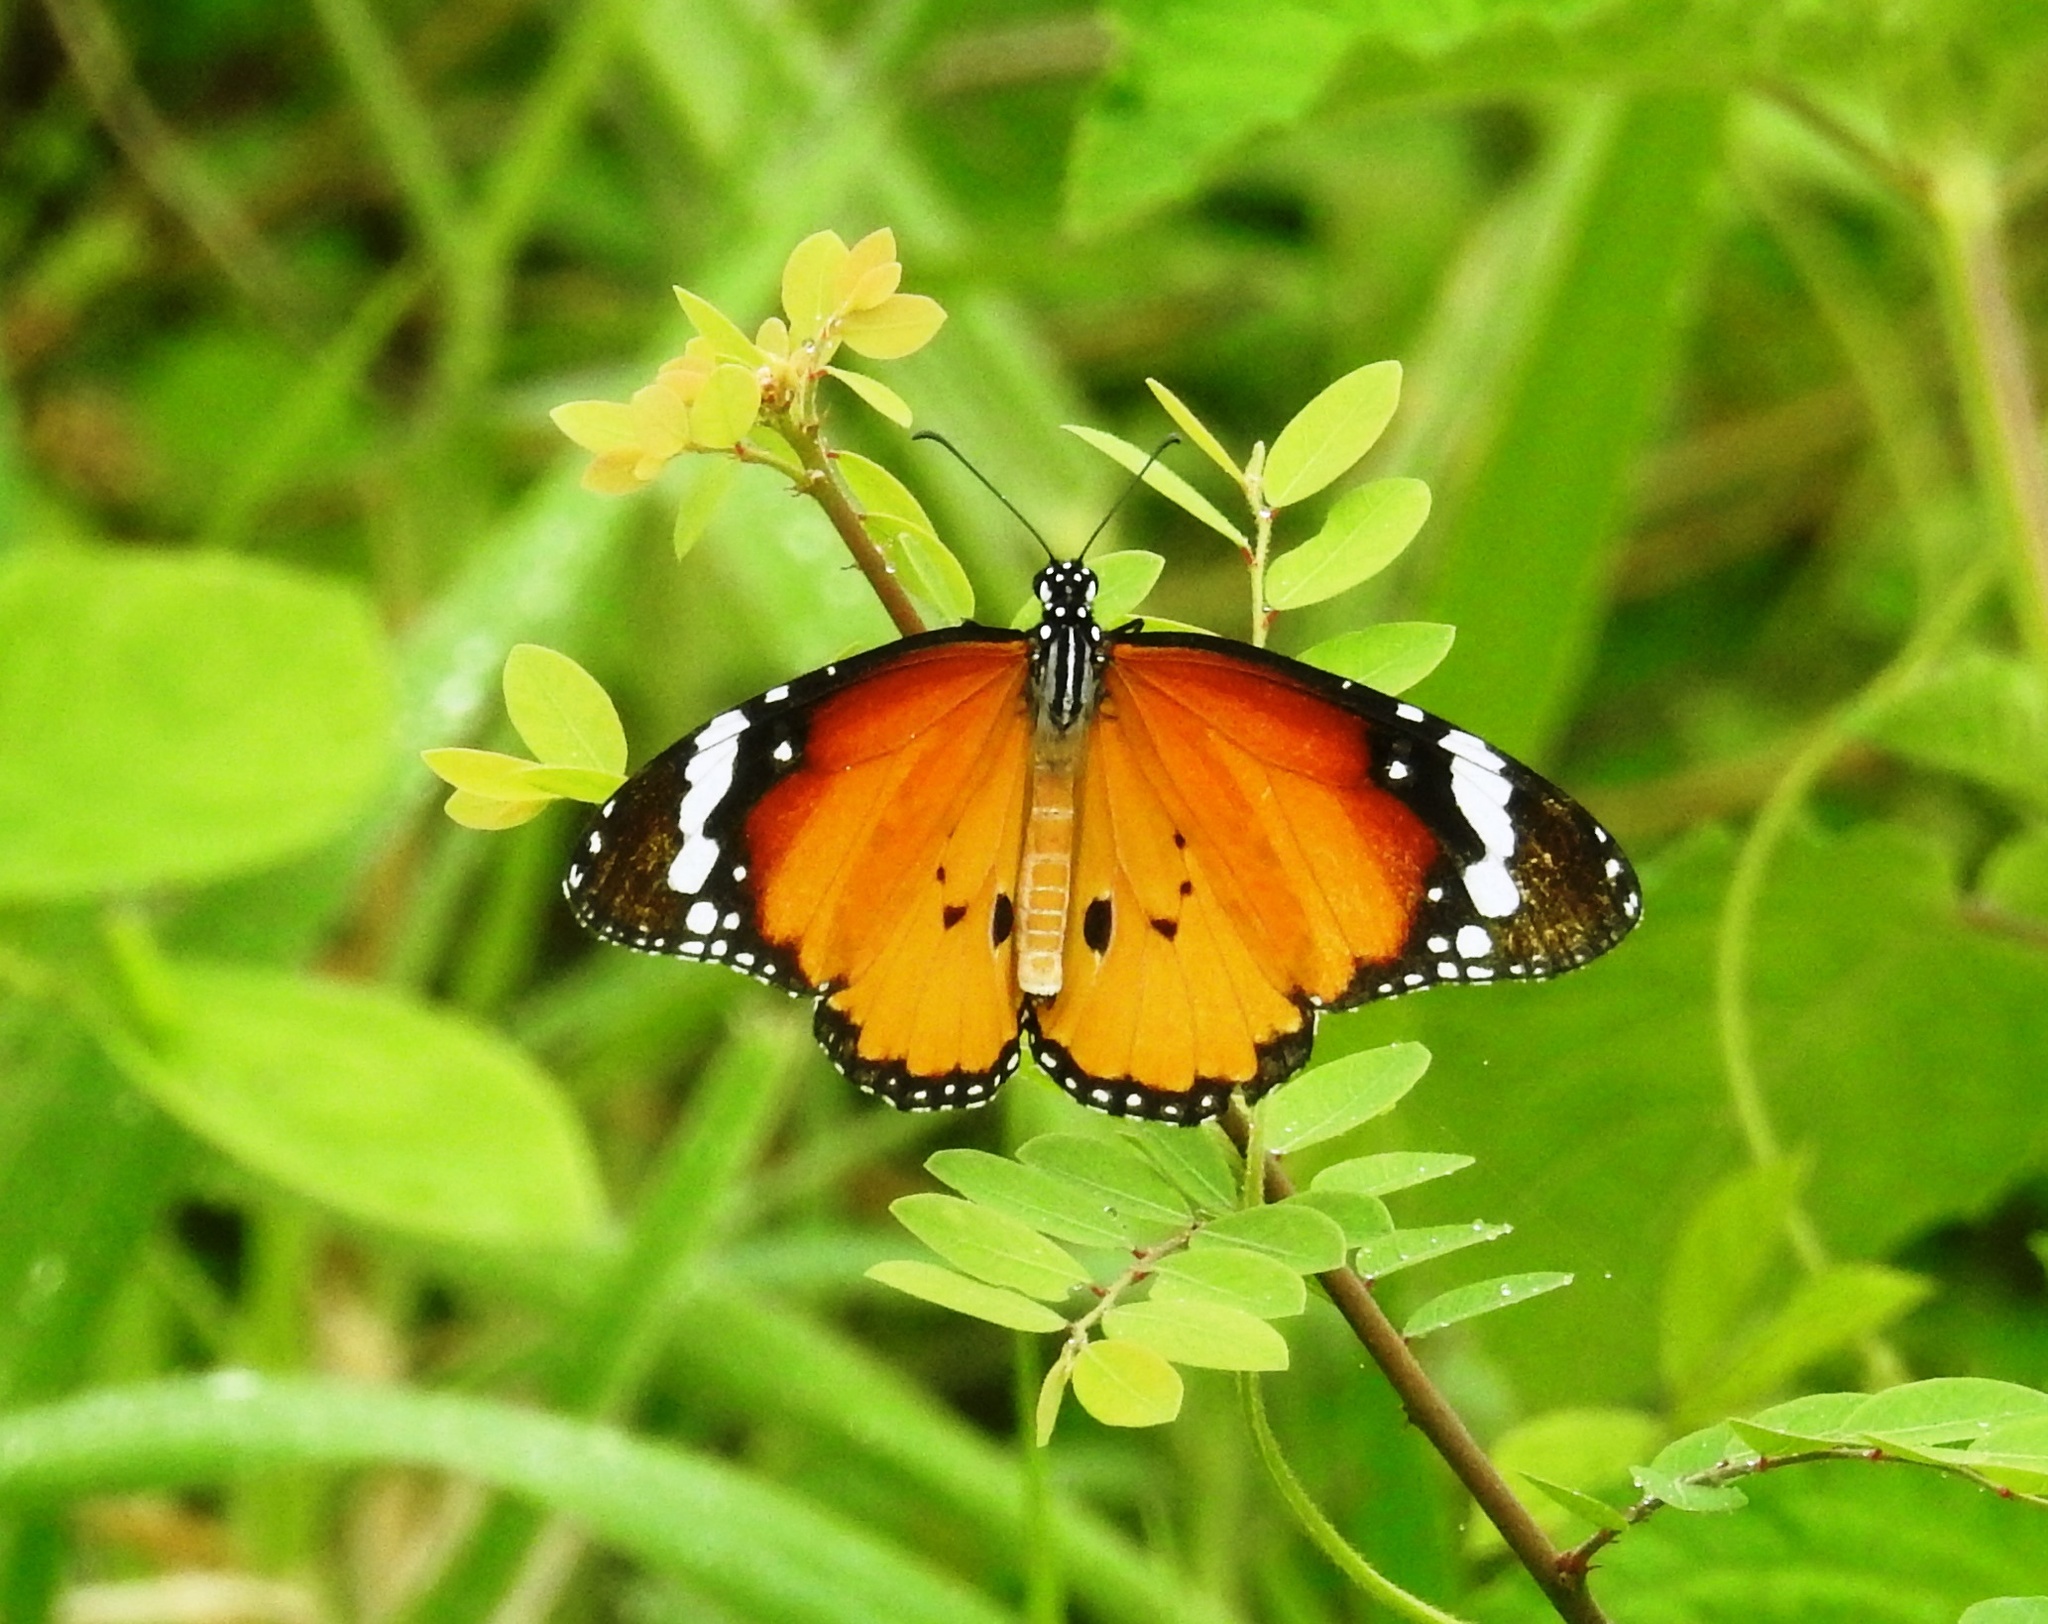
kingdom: Animalia
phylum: Arthropoda
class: Insecta
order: Lepidoptera
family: Nymphalidae
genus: Danaus
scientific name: Danaus chrysippus
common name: Plain tiger
